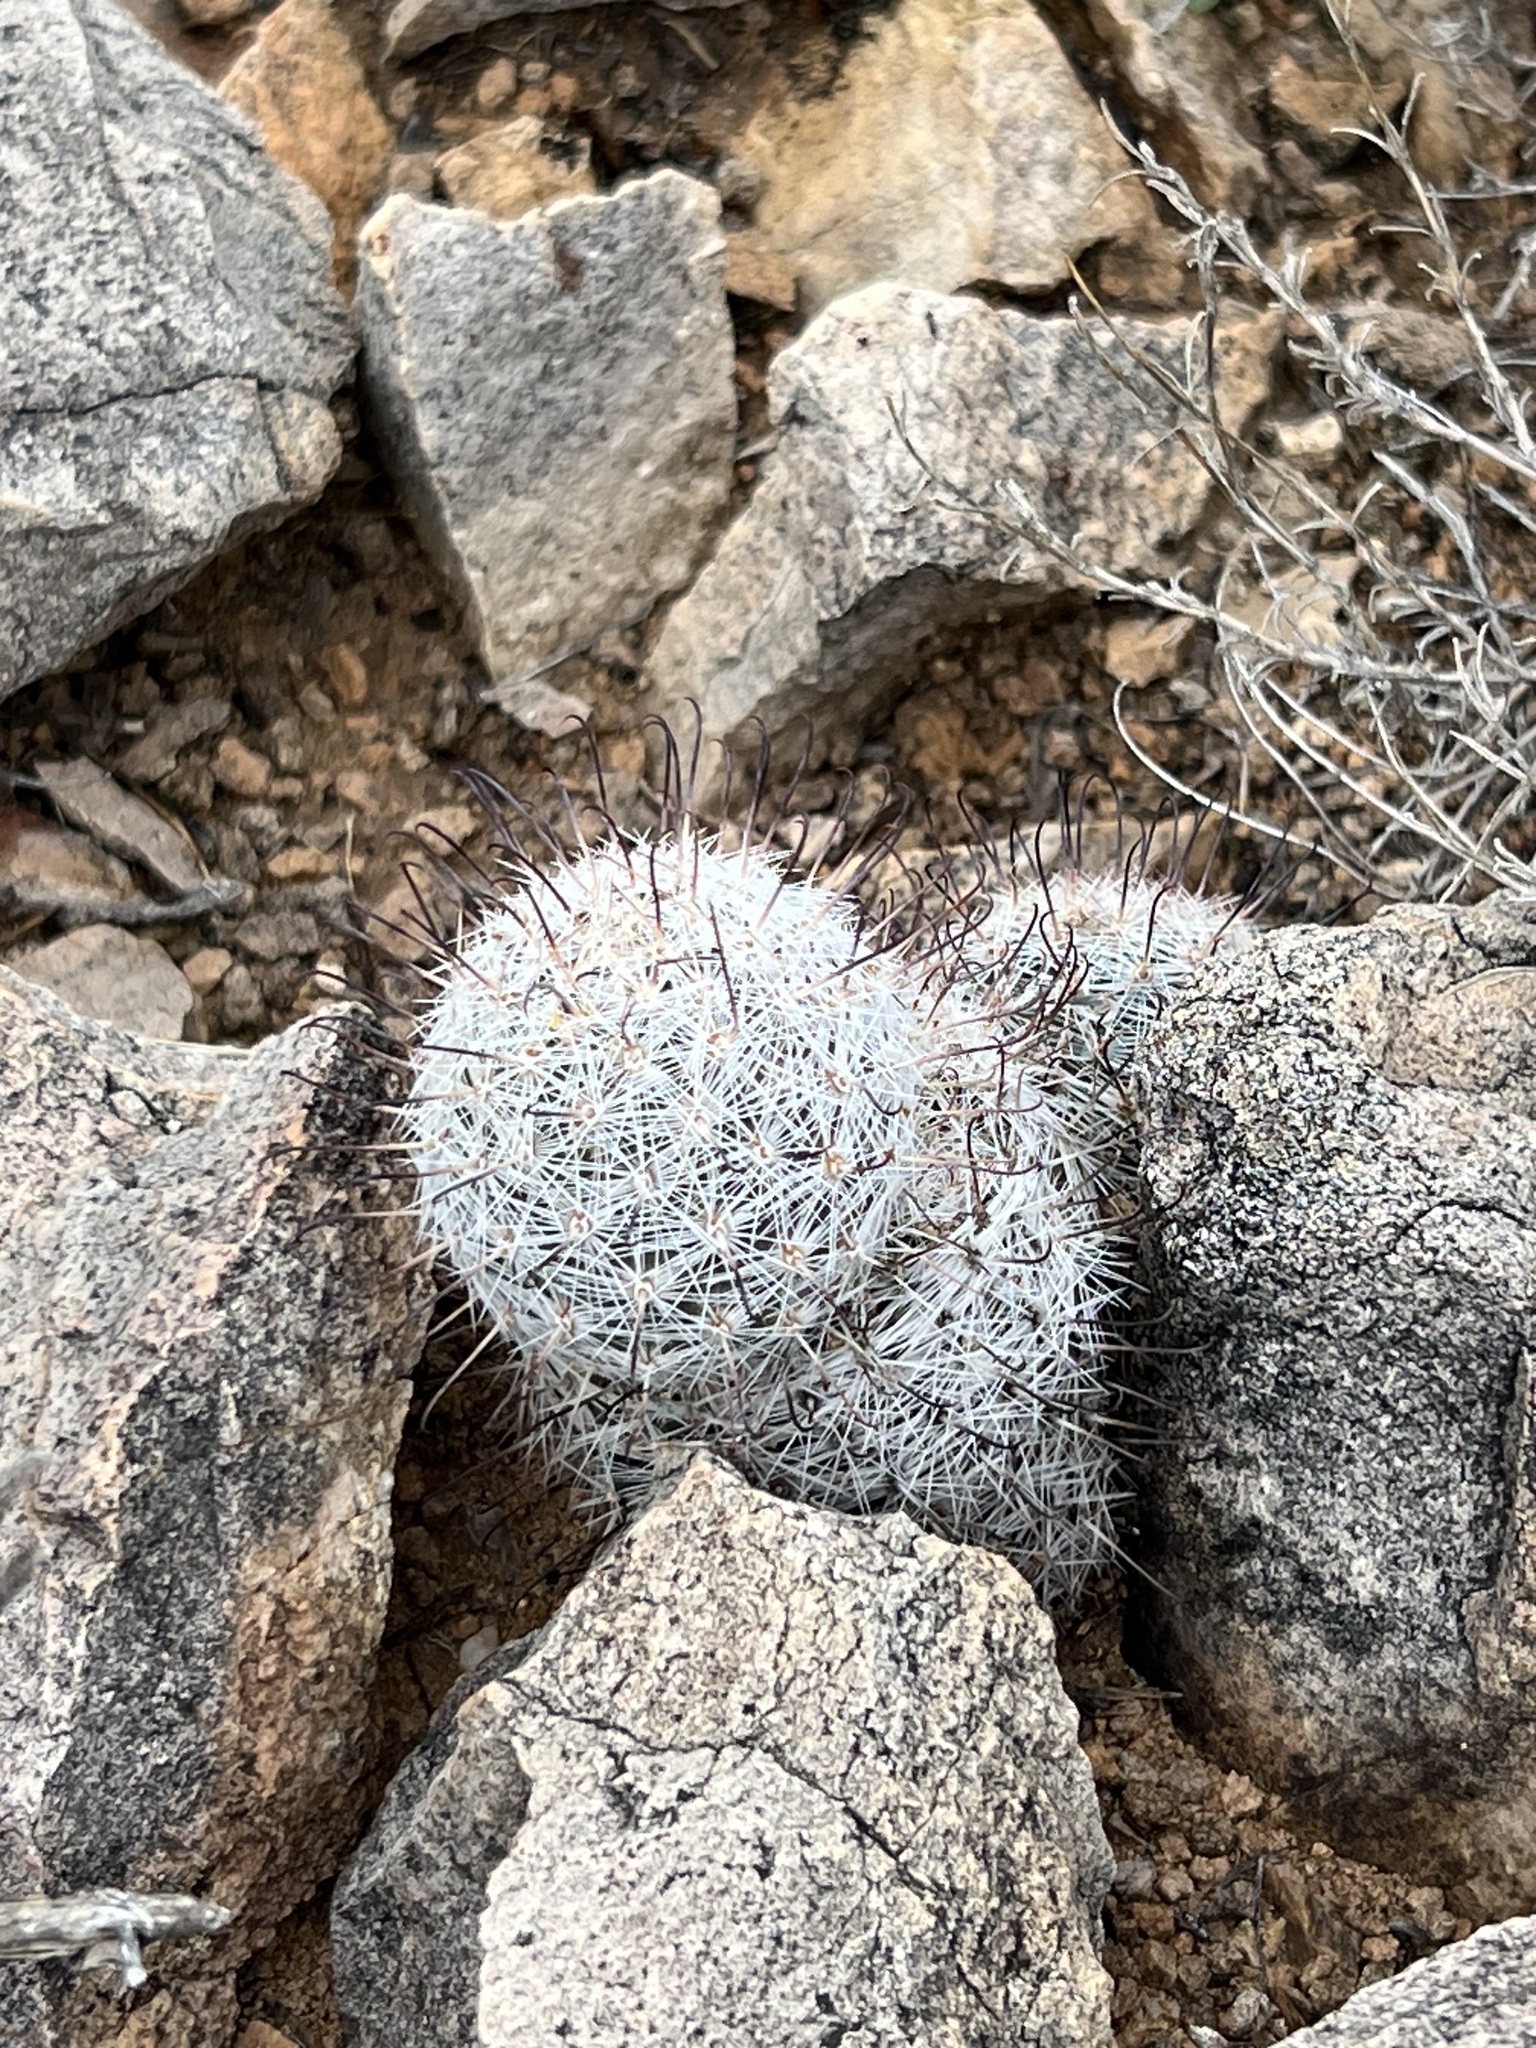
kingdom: Plantae
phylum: Tracheophyta
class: Magnoliopsida
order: Caryophyllales
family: Cactaceae
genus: Cochemiea
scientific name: Cochemiea grahamii
